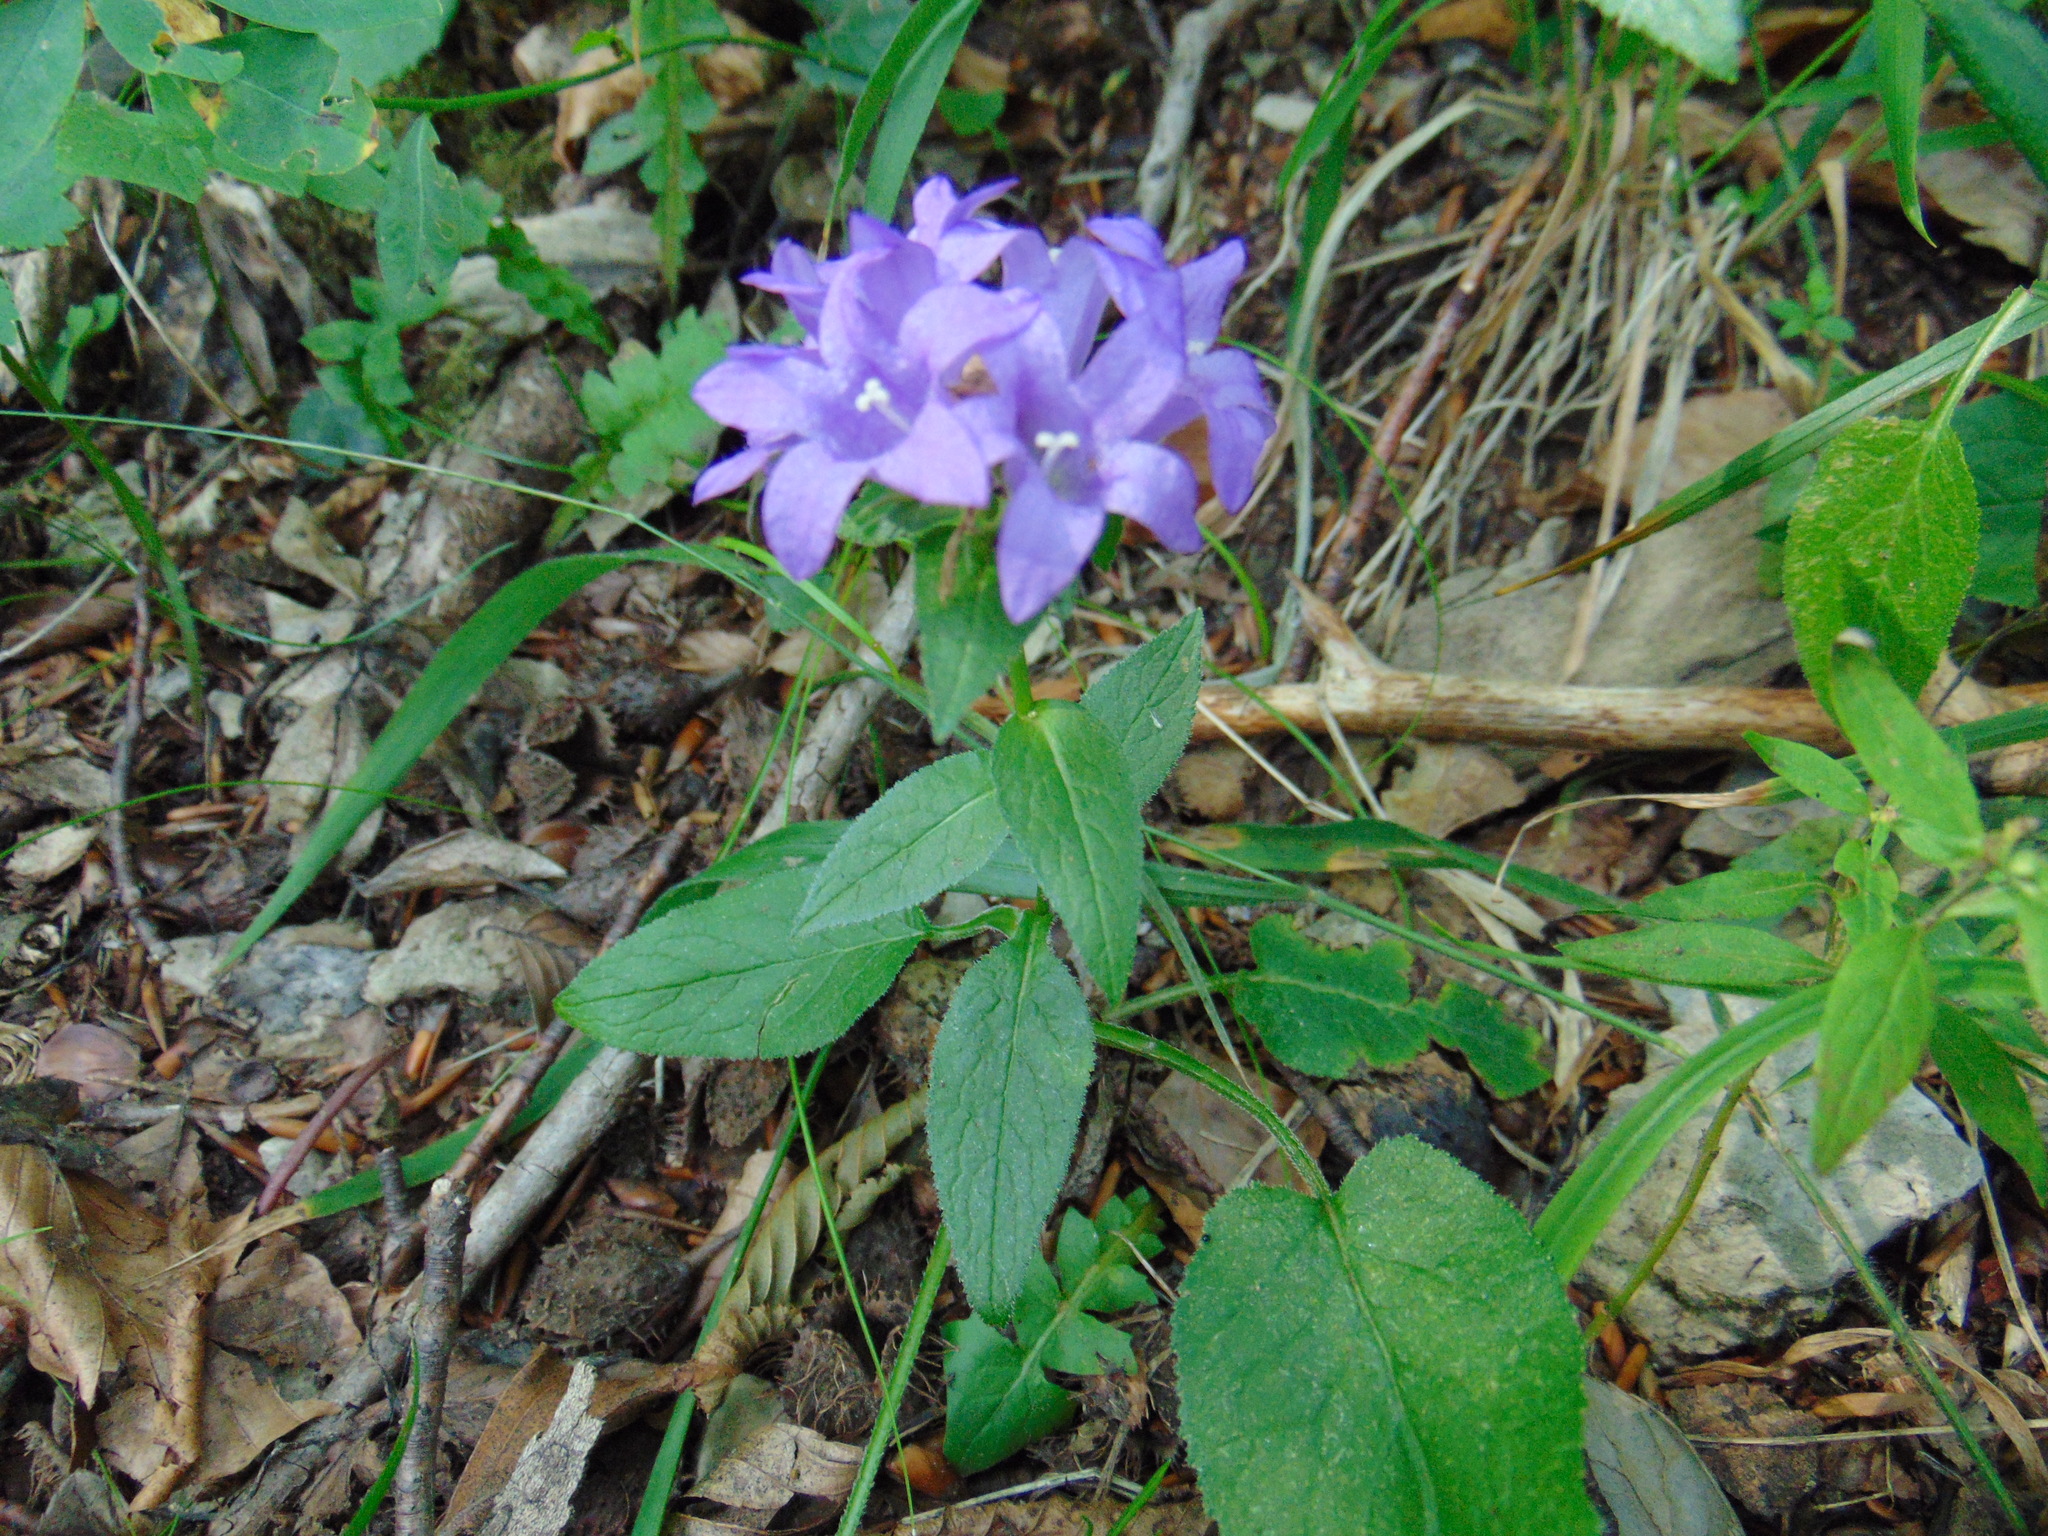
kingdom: Plantae
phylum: Tracheophyta
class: Magnoliopsida
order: Asterales
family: Campanulaceae
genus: Campanula
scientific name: Campanula glomerata
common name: Clustered bellflower
